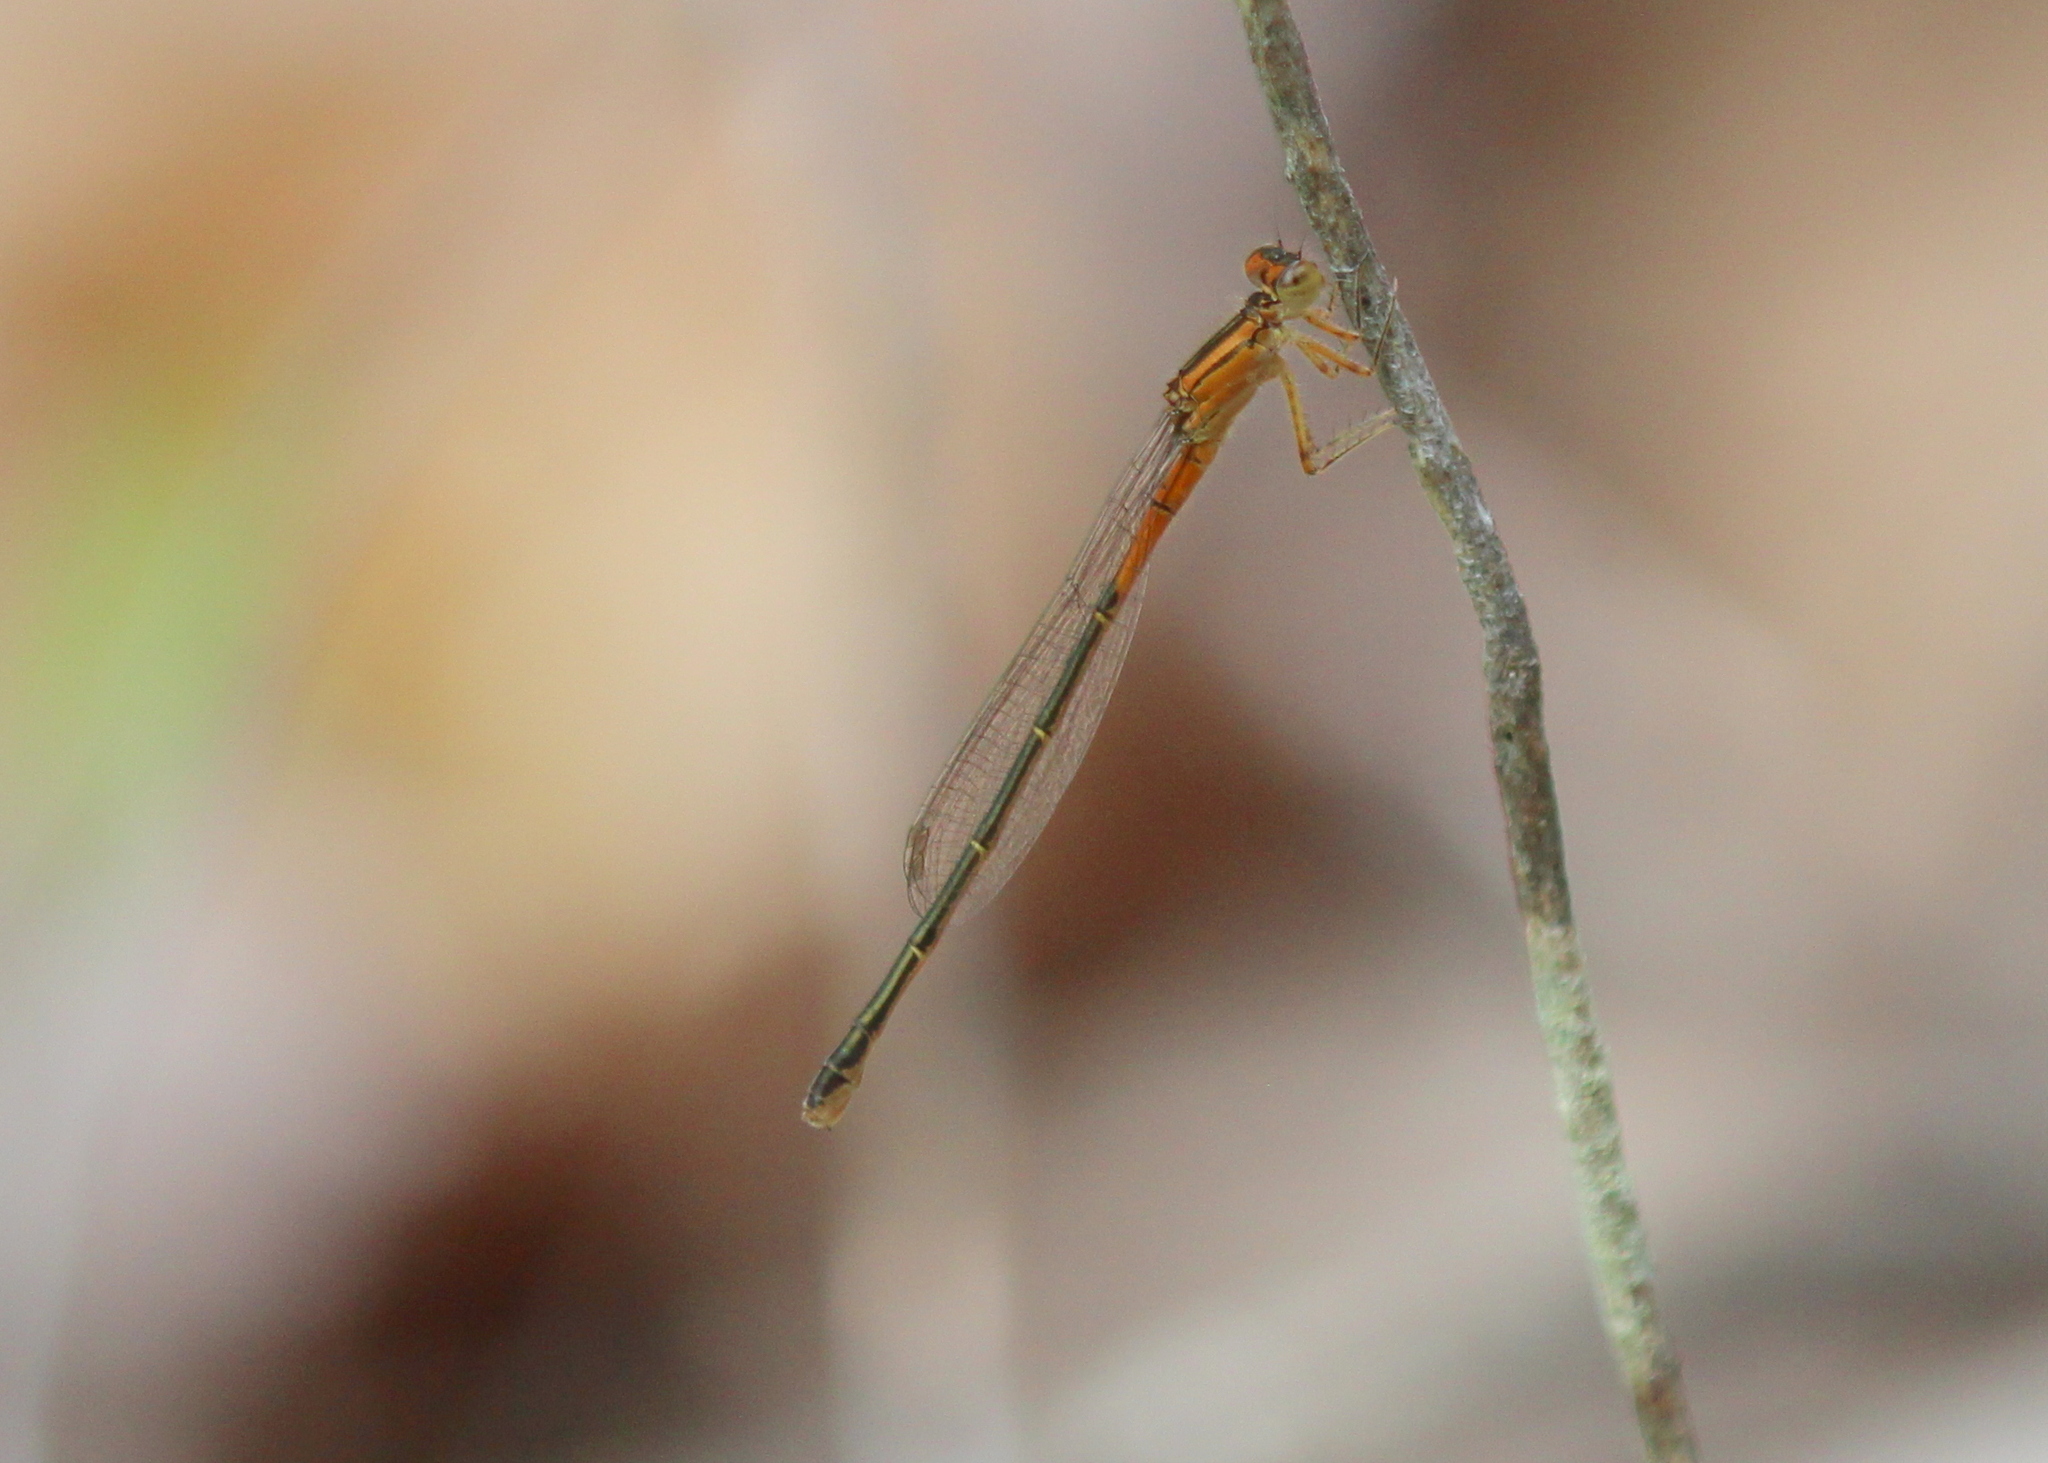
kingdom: Animalia
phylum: Arthropoda
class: Insecta
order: Odonata
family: Coenagrionidae
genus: Ischnura
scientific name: Ischnura verticalis
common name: Eastern forktail
